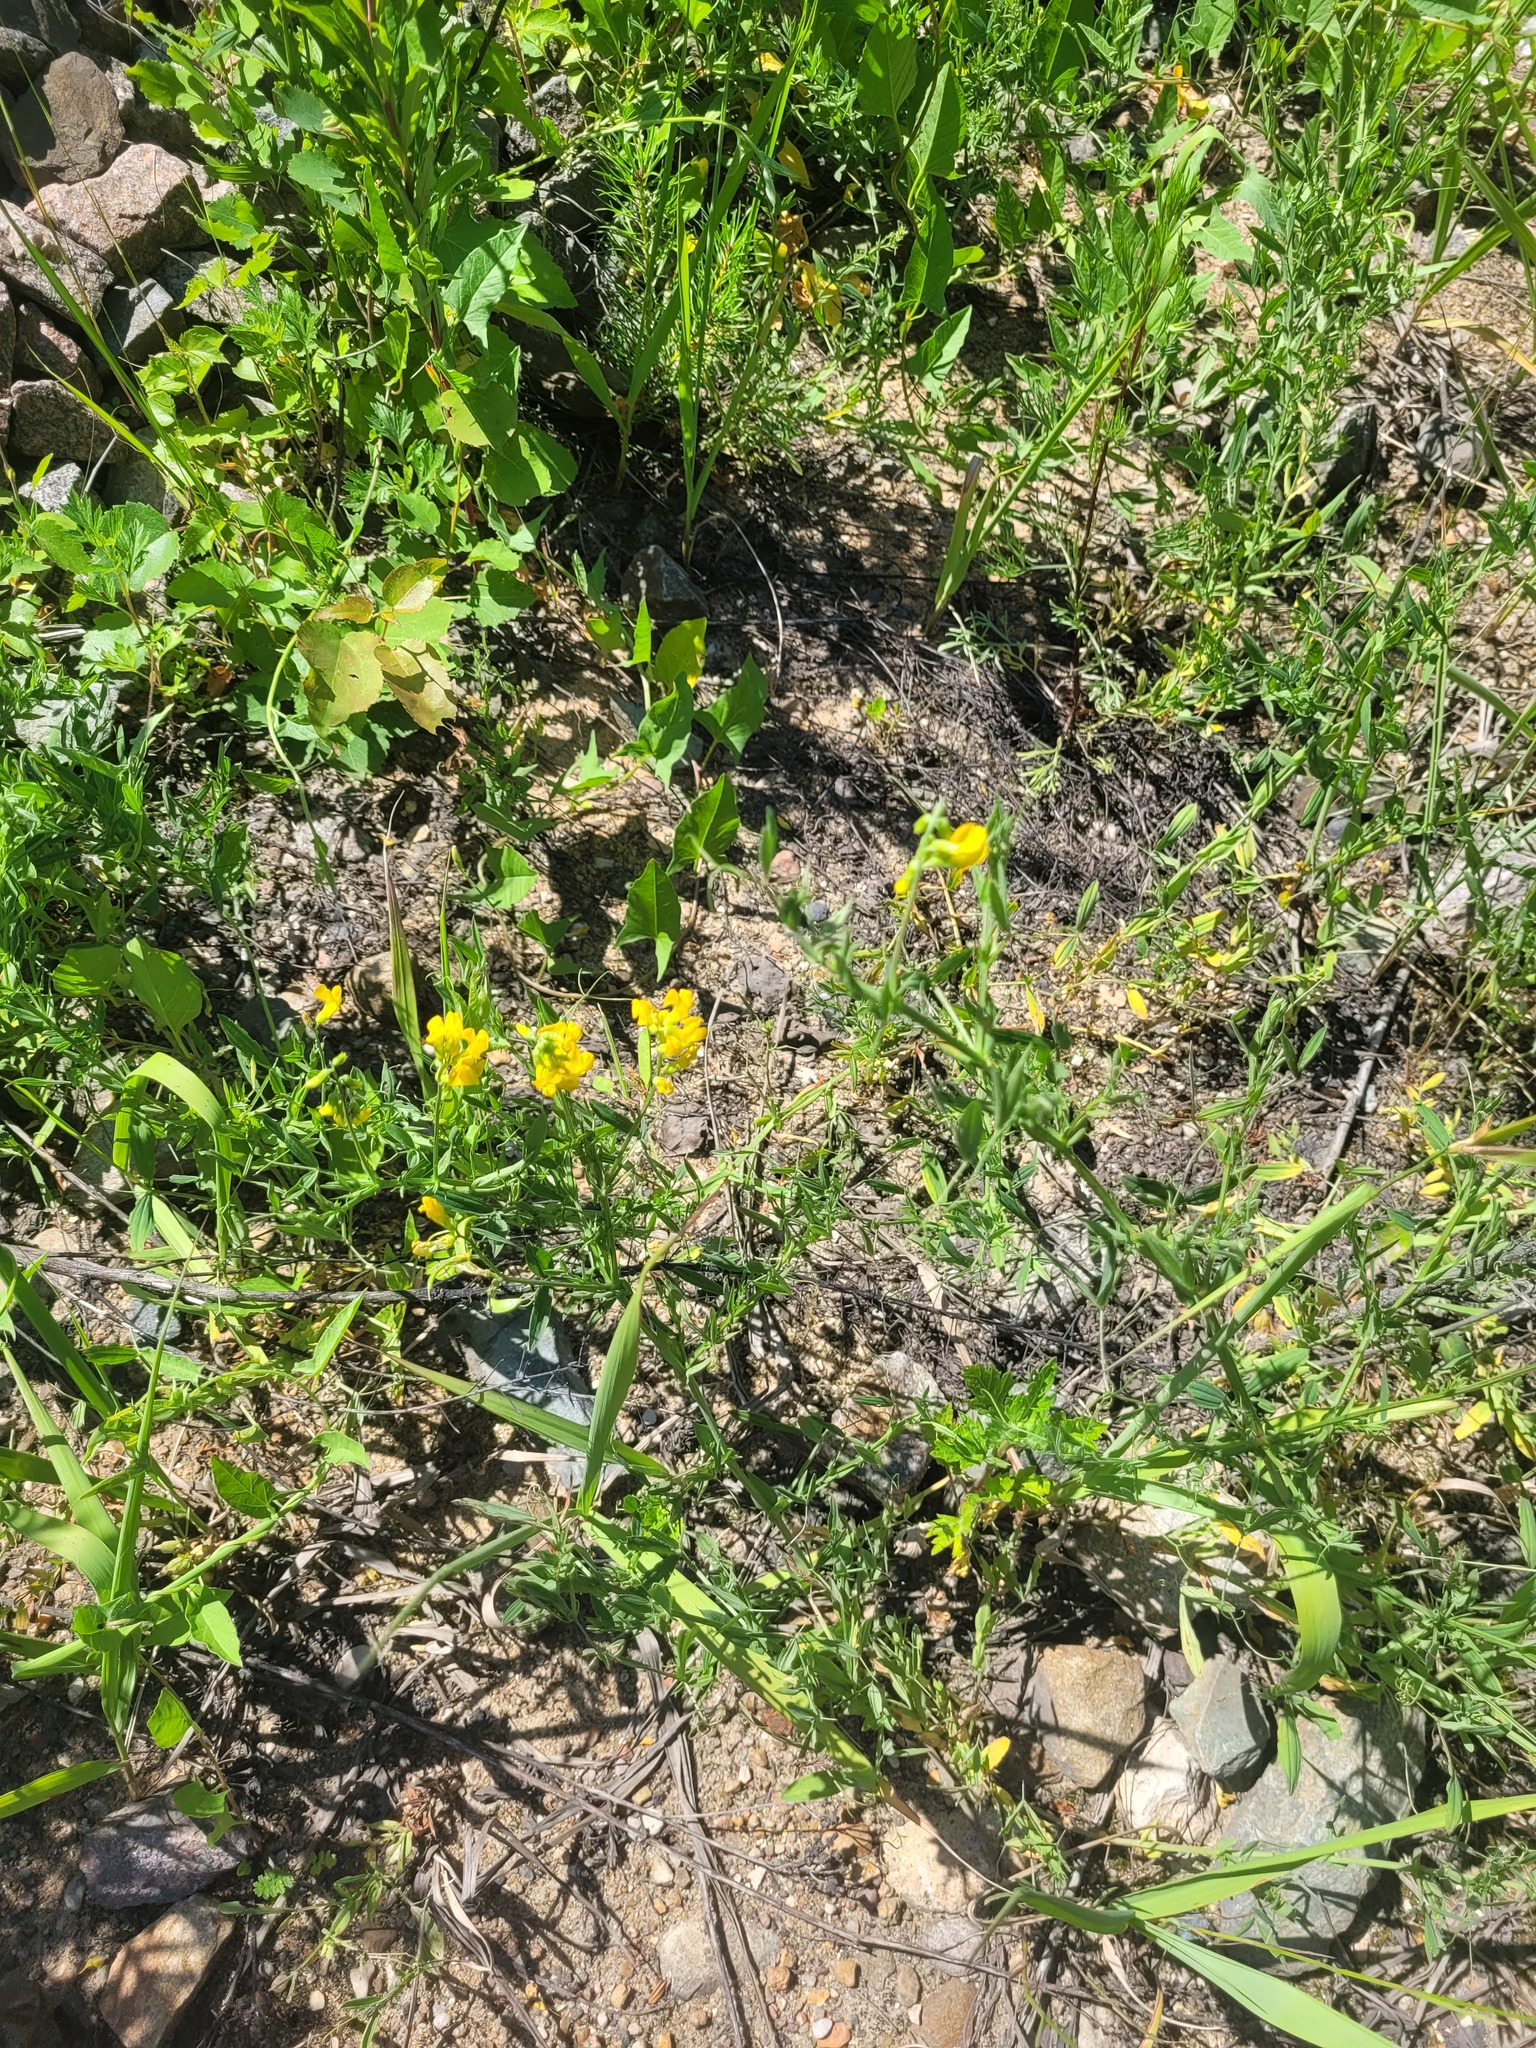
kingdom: Plantae
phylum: Tracheophyta
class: Magnoliopsida
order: Fabales
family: Fabaceae
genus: Lathyrus
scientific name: Lathyrus pratensis
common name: Meadow vetchling
